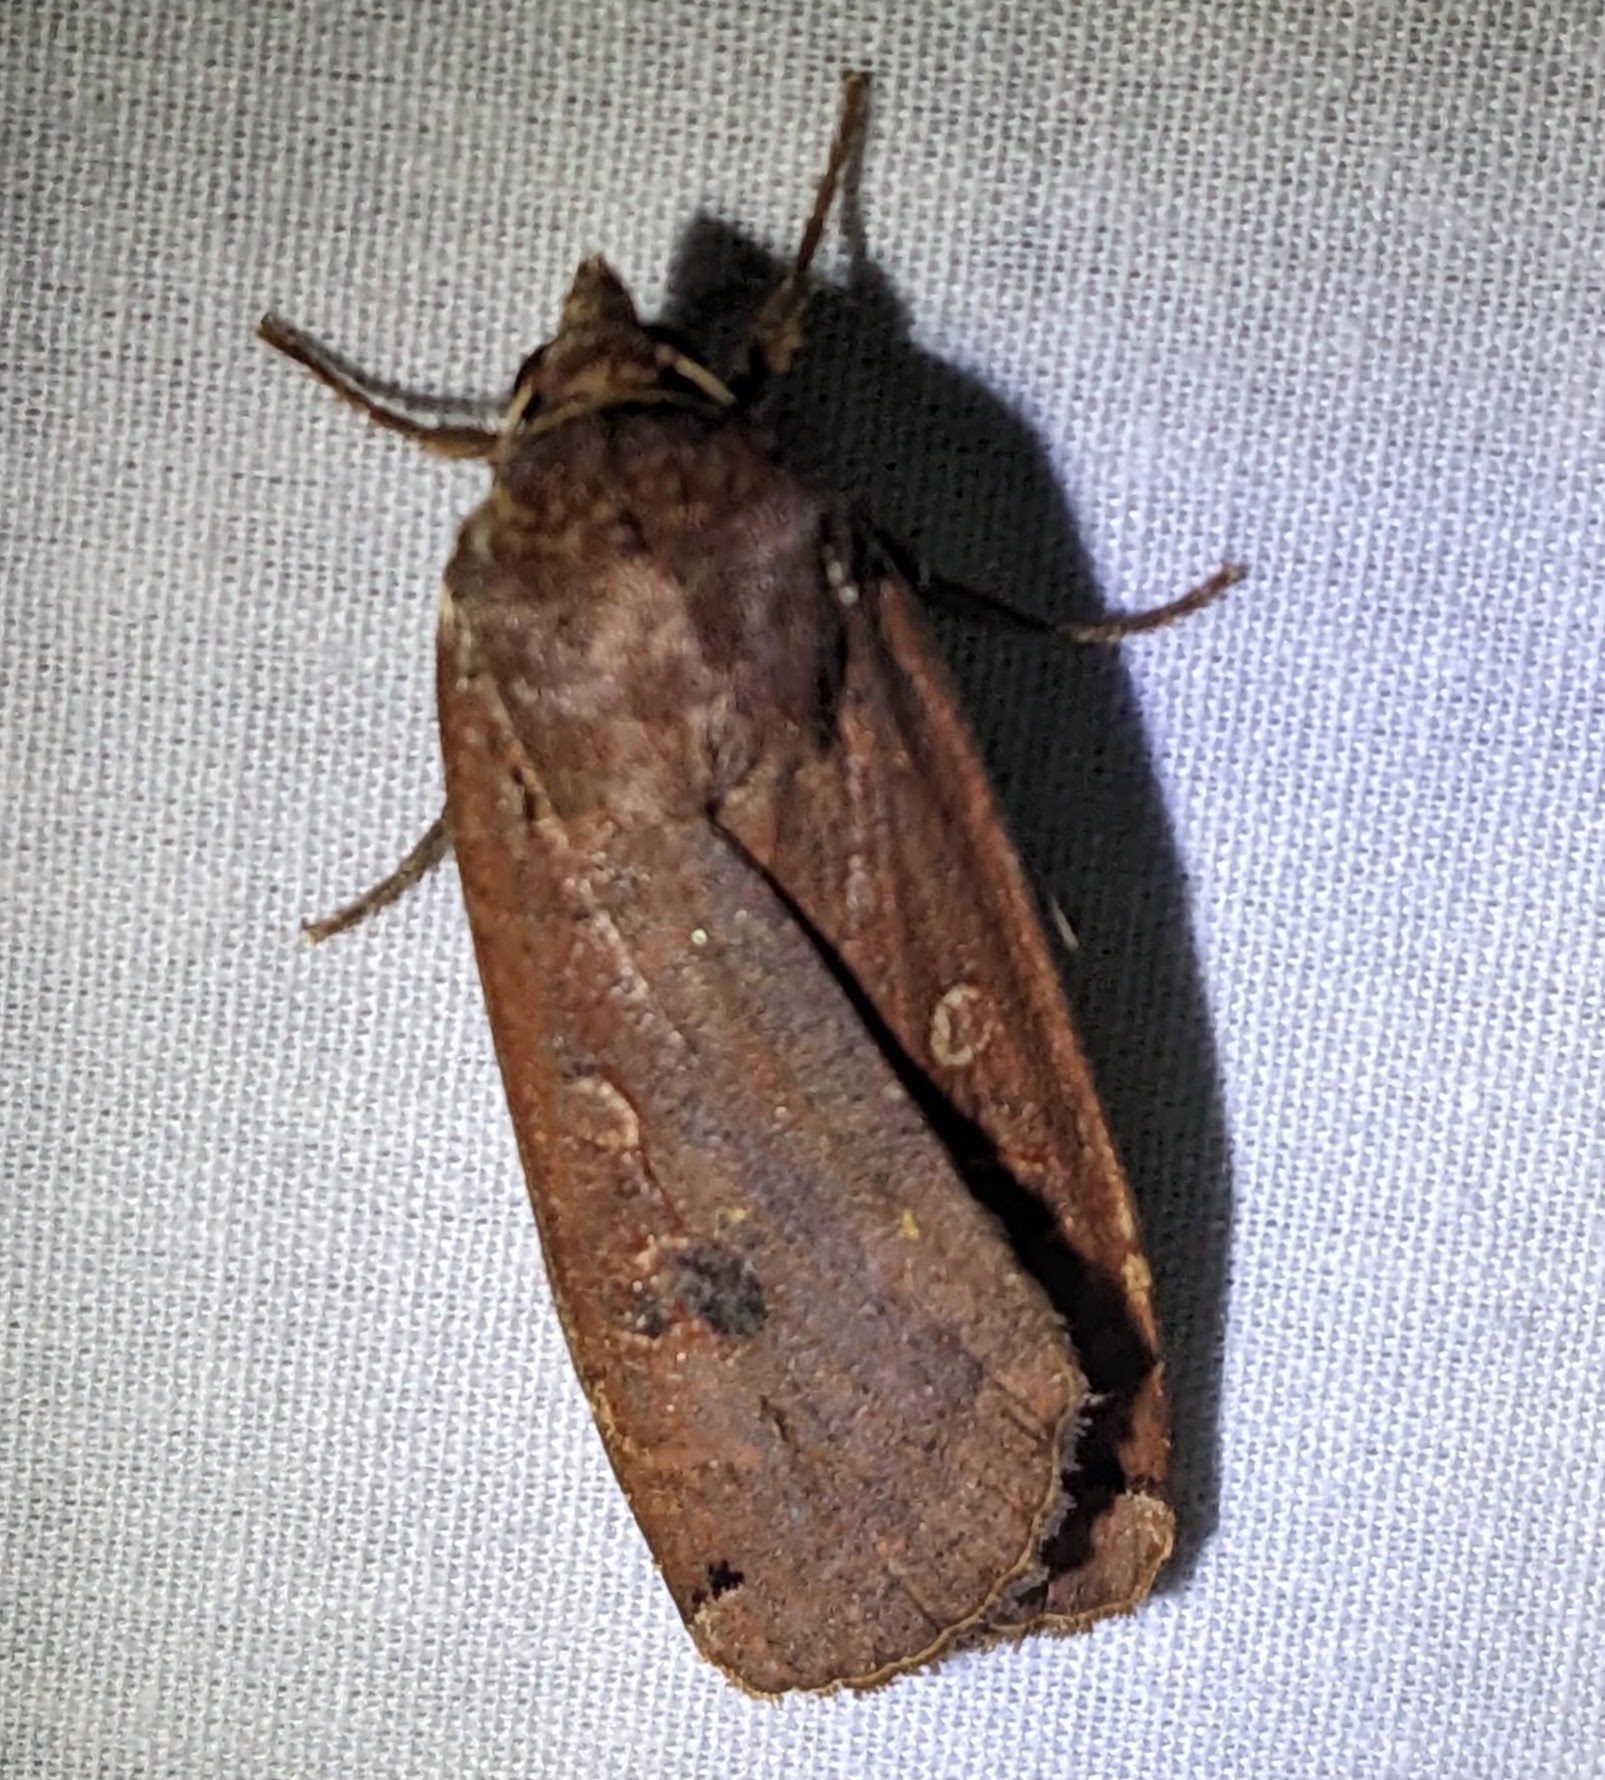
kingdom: Animalia
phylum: Arthropoda
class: Insecta
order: Lepidoptera
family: Noctuidae
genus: Noctua
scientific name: Noctua pronuba
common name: Large yellow underwing
